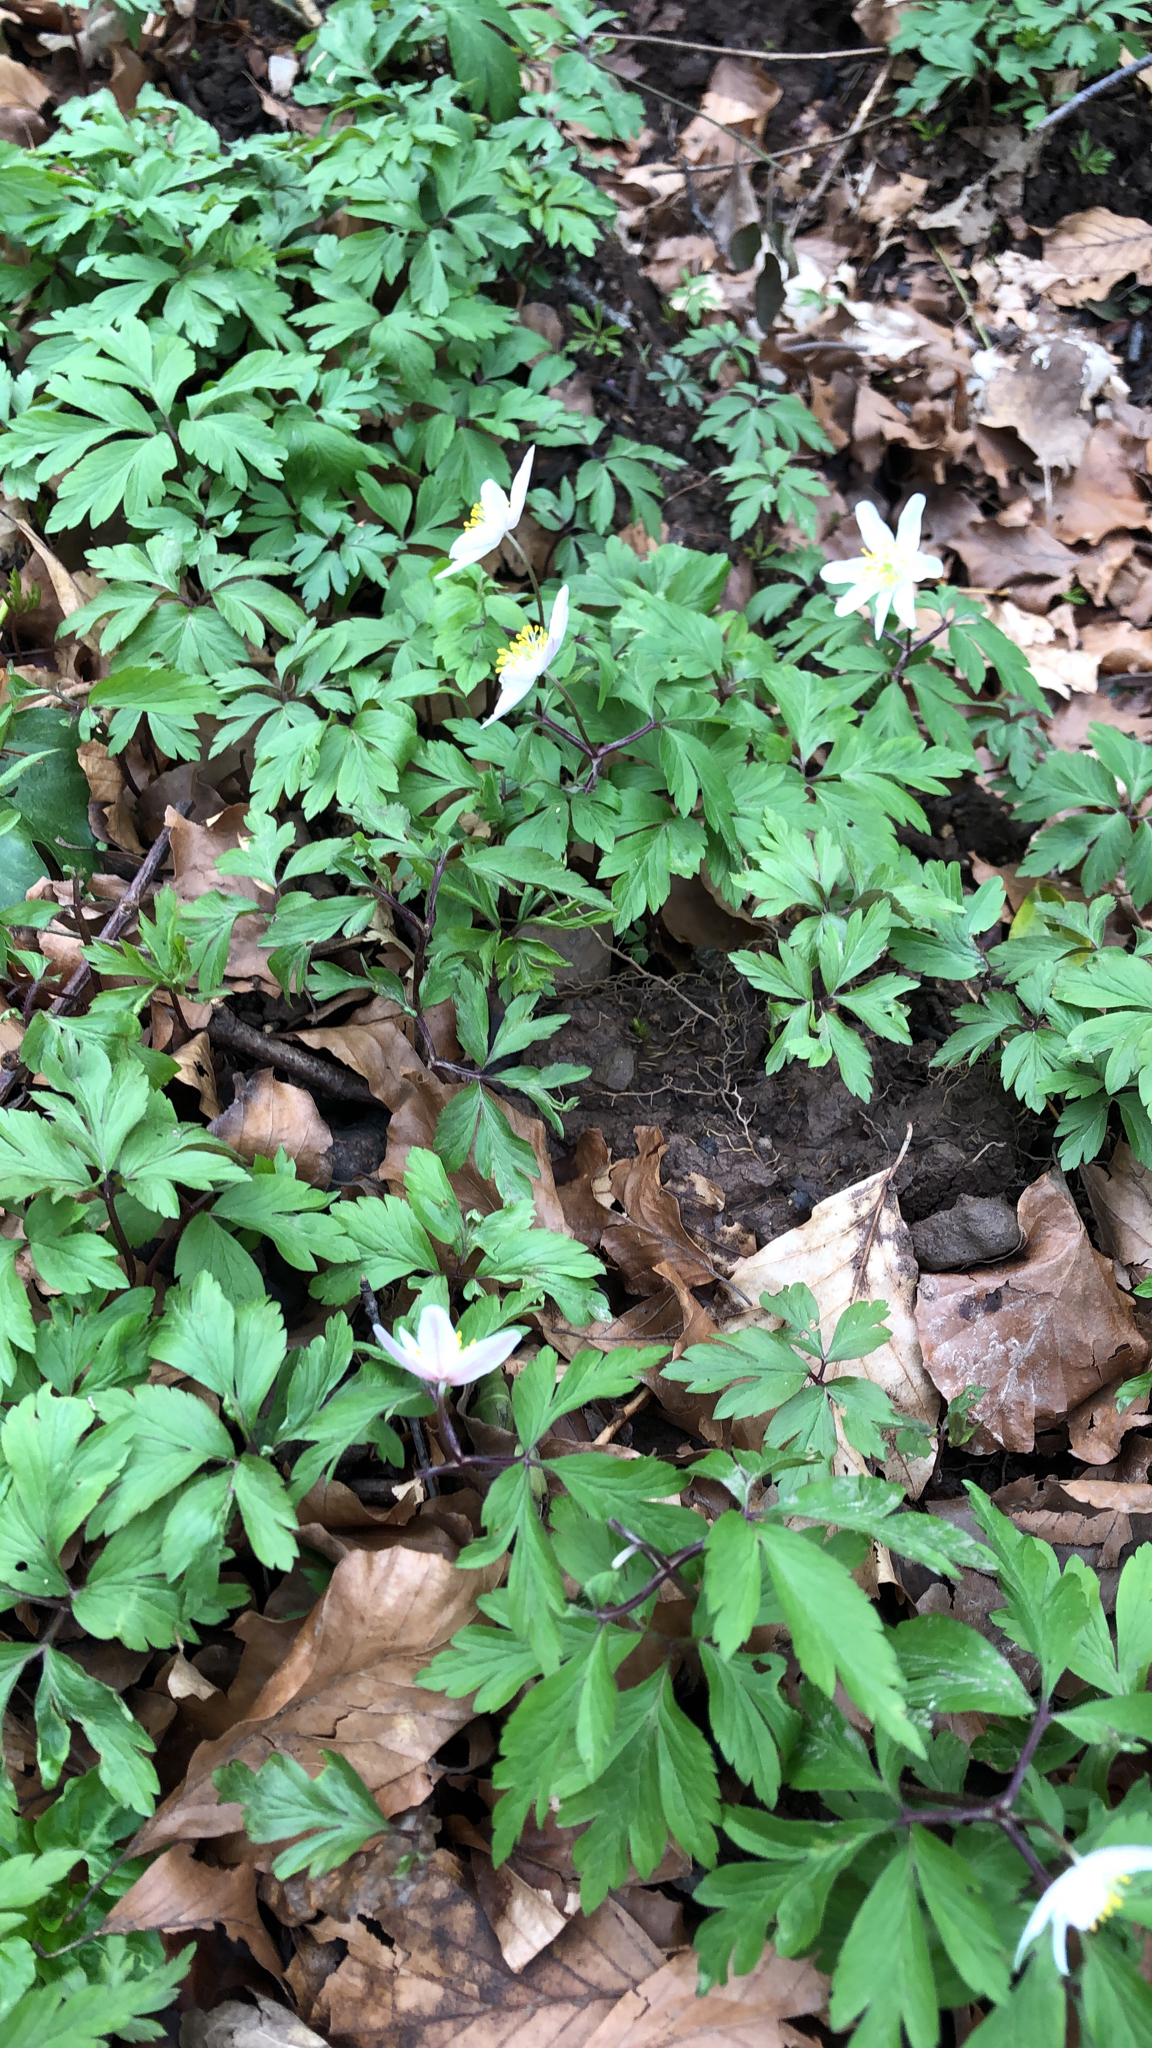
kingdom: Plantae
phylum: Tracheophyta
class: Magnoliopsida
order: Ranunculales
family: Ranunculaceae
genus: Anemone
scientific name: Anemone nemorosa
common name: Wood anemone
